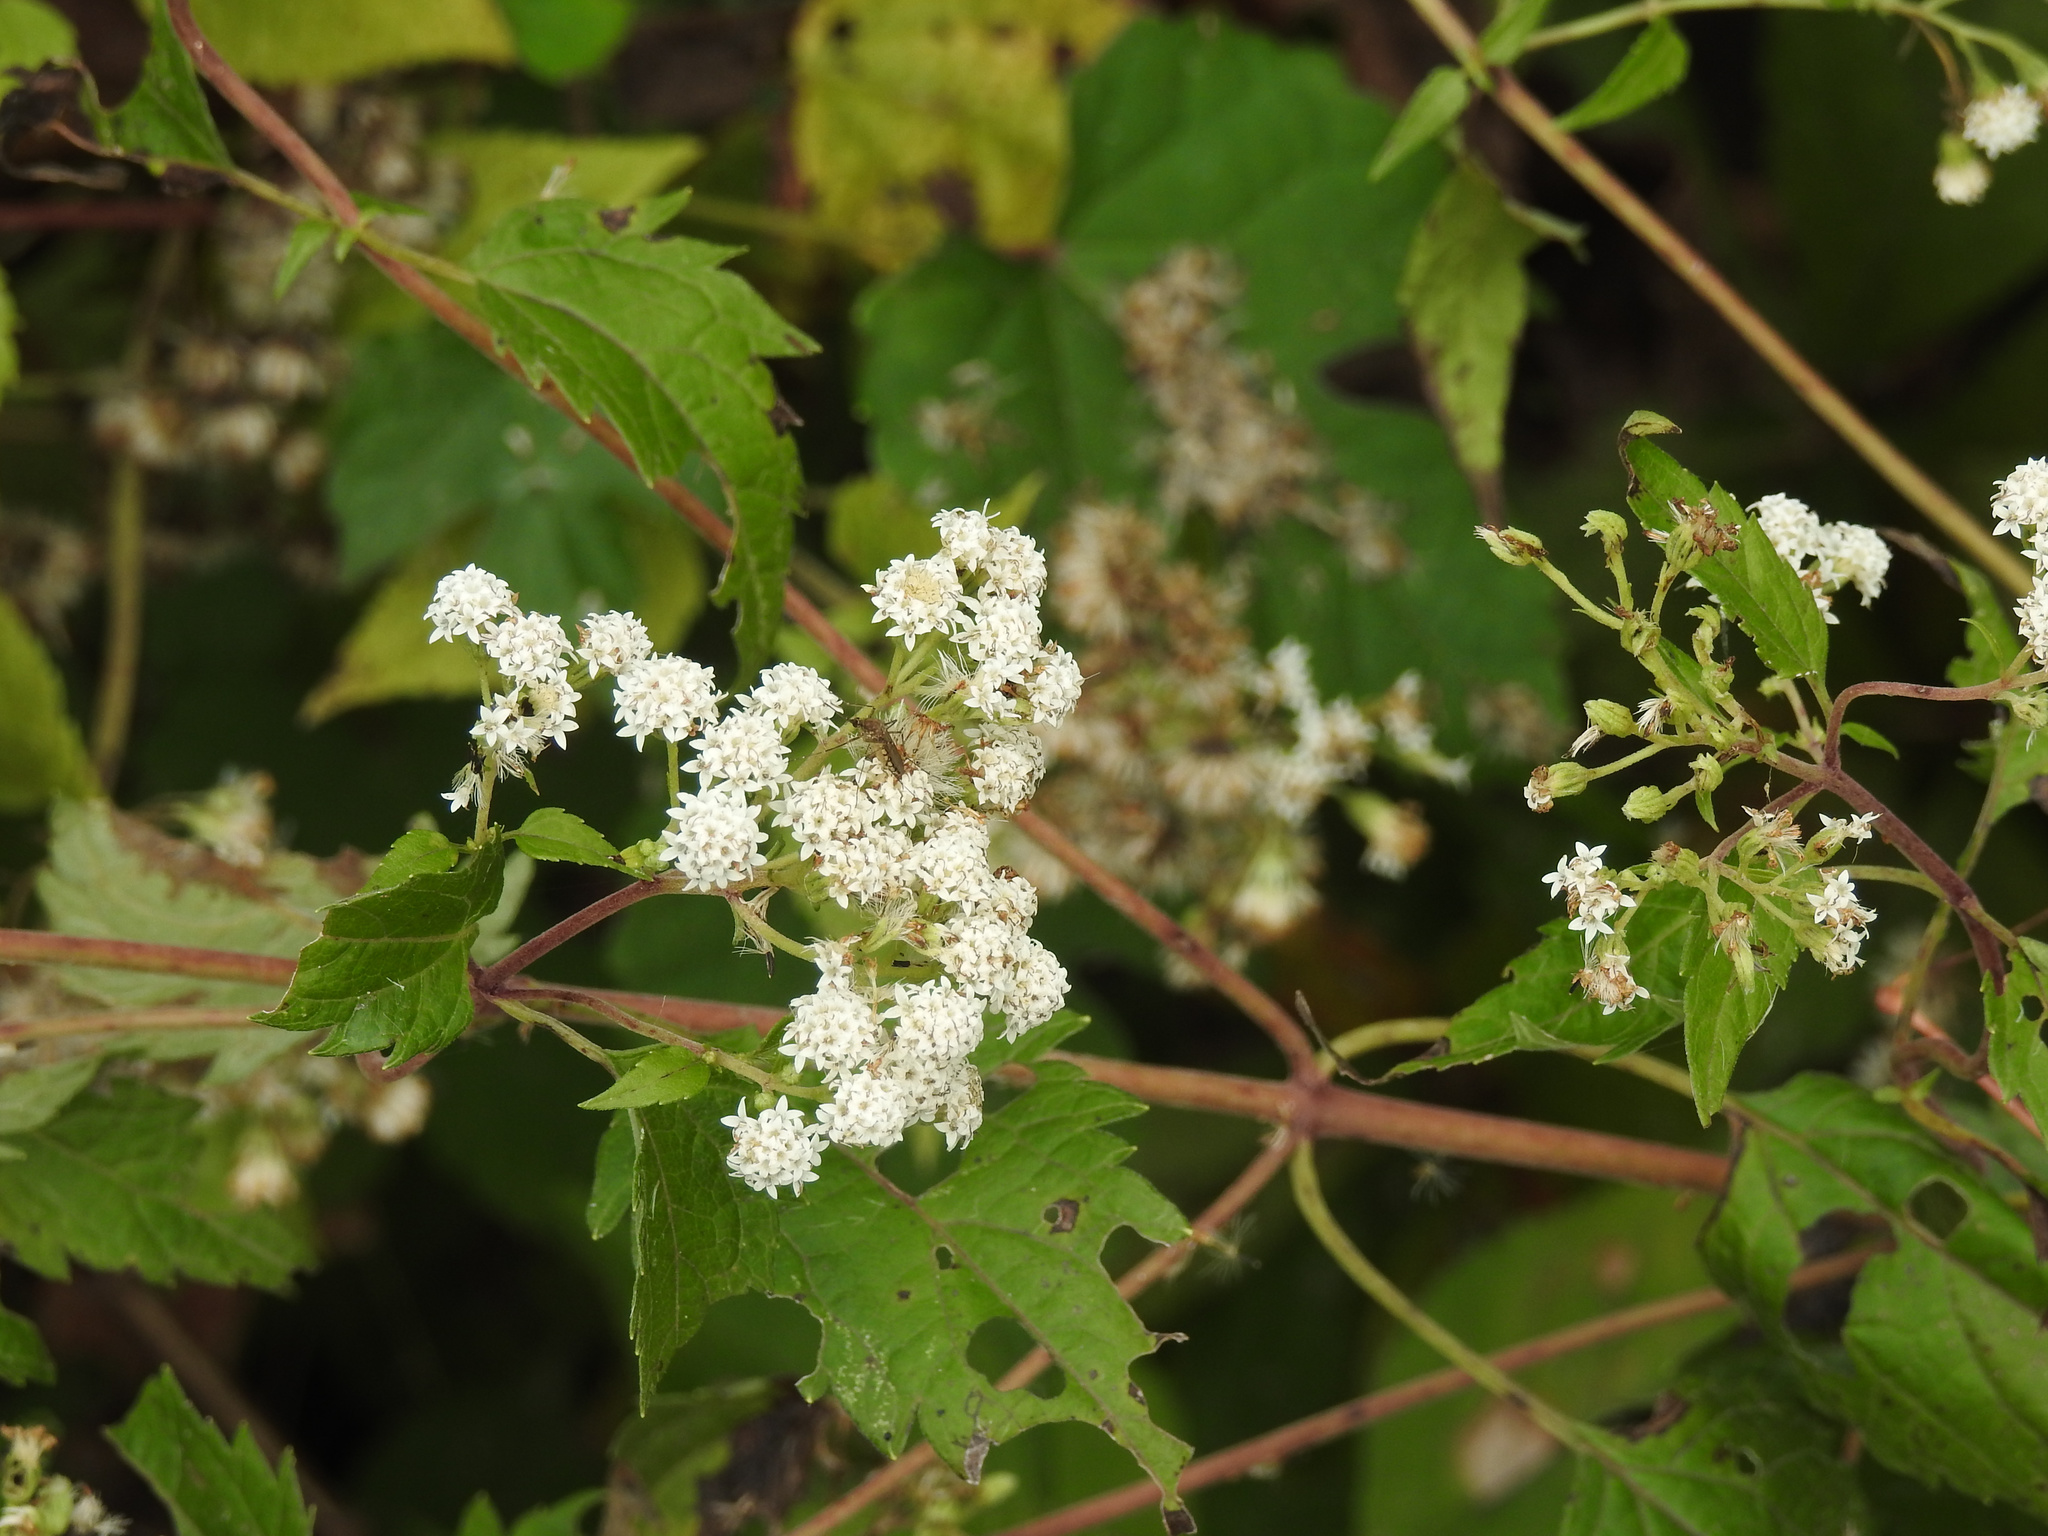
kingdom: Plantae
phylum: Tracheophyta
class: Magnoliopsida
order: Asterales
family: Asteraceae
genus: Ageratina
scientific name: Ageratina altissima
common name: White snakeroot
